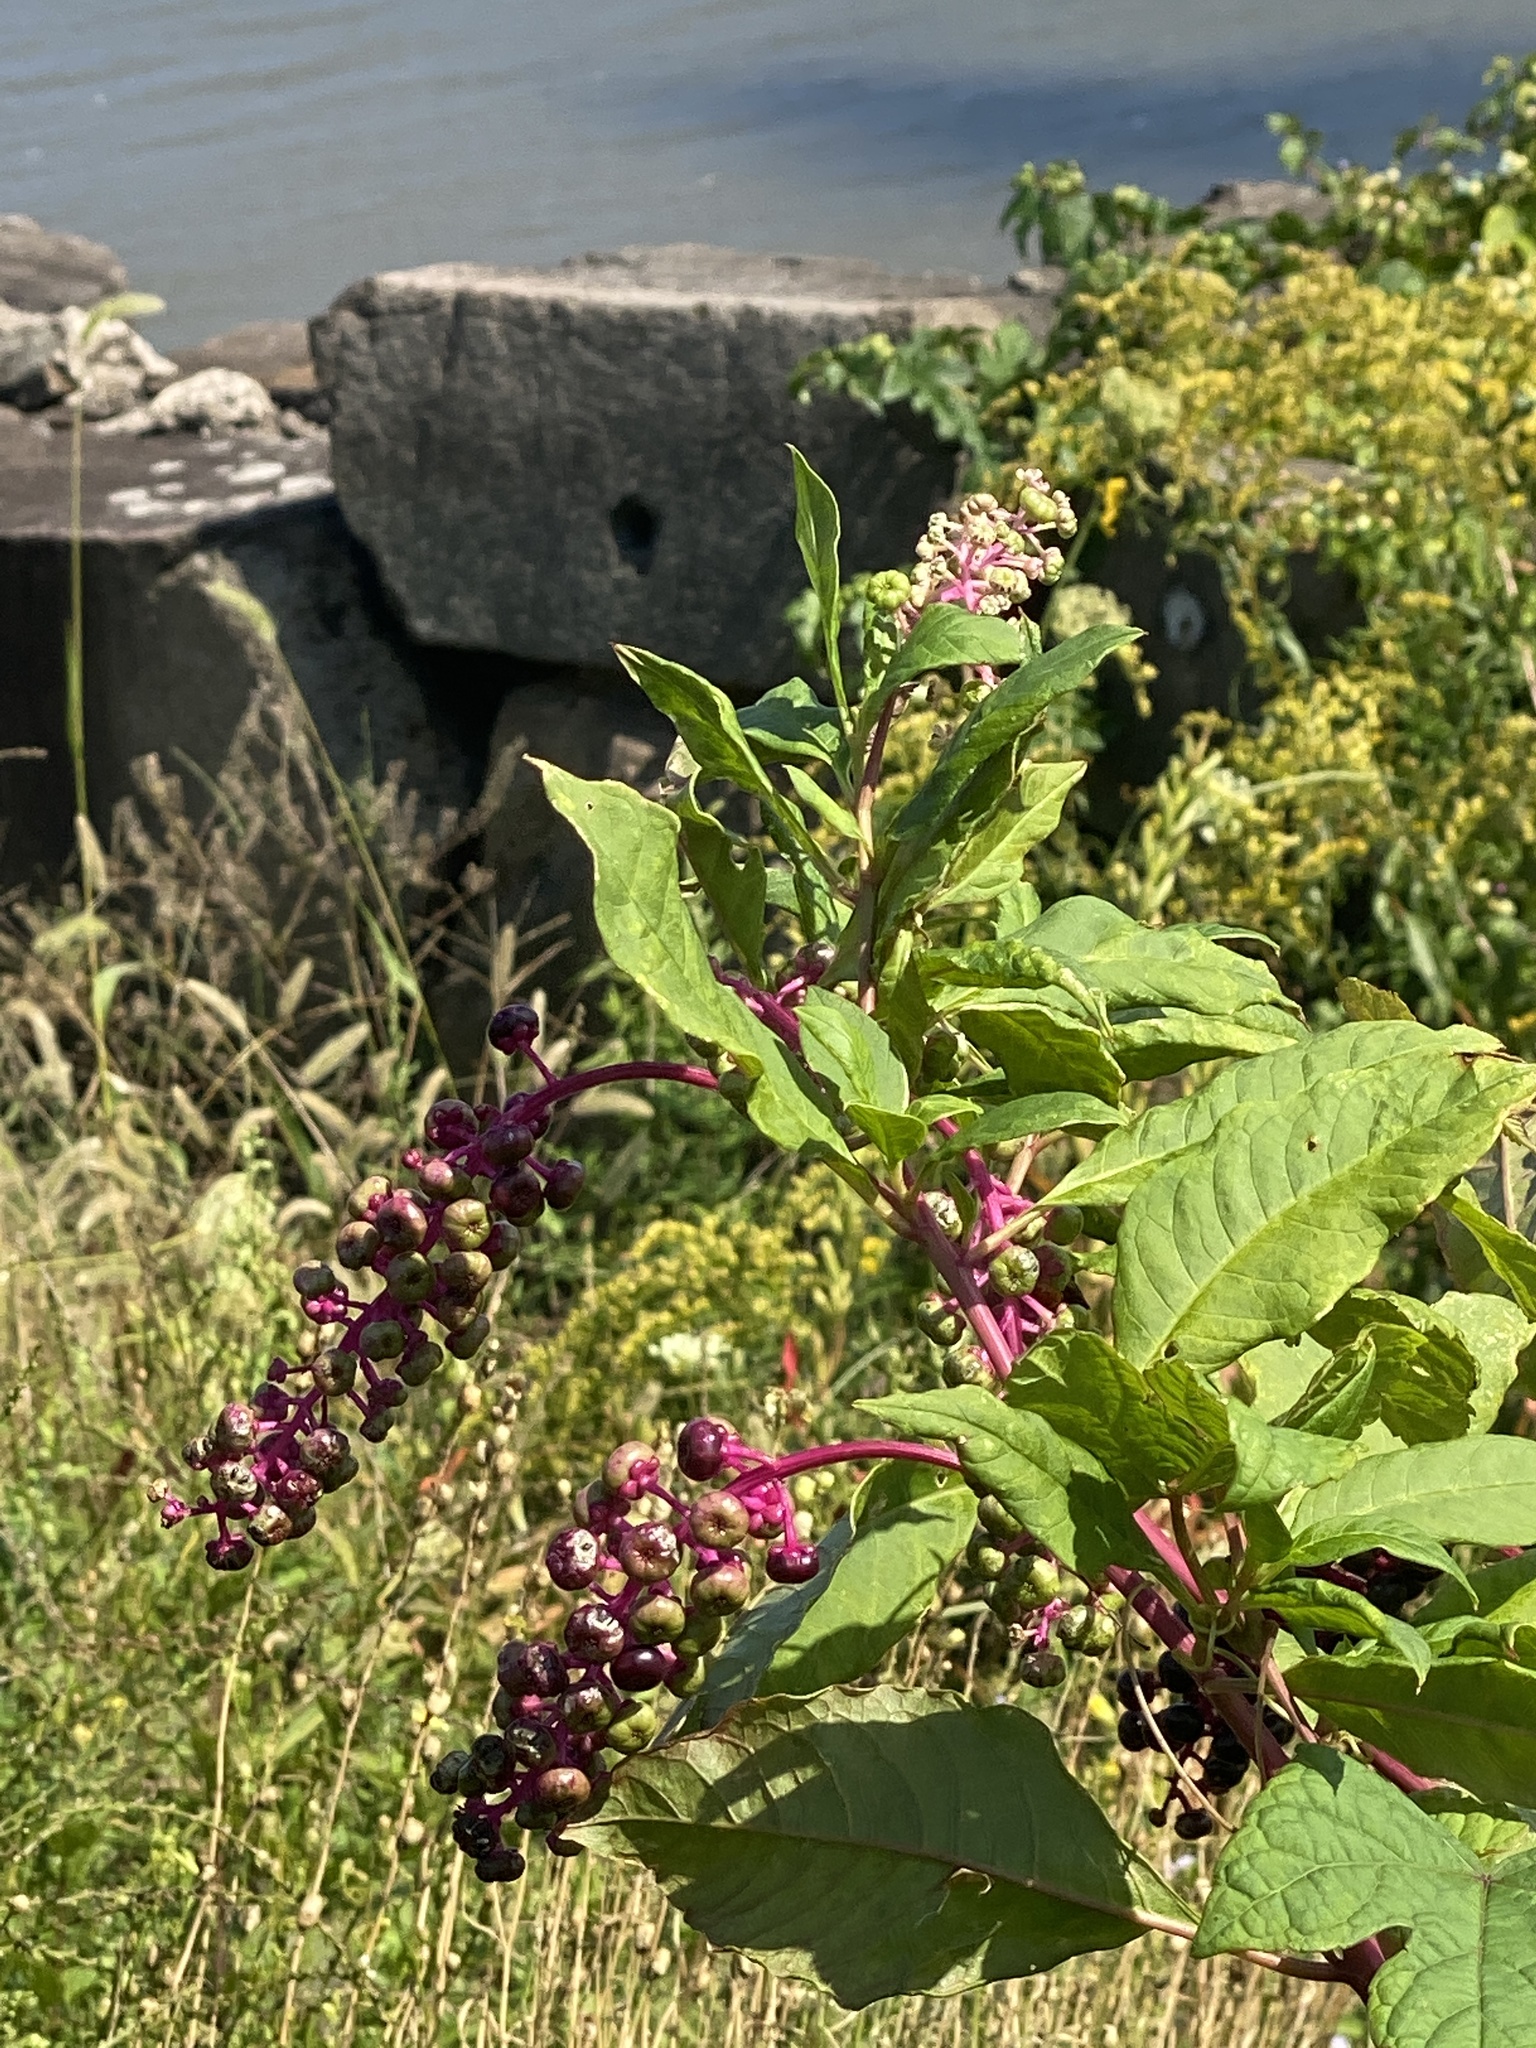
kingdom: Plantae
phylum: Tracheophyta
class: Magnoliopsida
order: Caryophyllales
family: Phytolaccaceae
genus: Phytolacca
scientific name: Phytolacca americana
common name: American pokeweed
